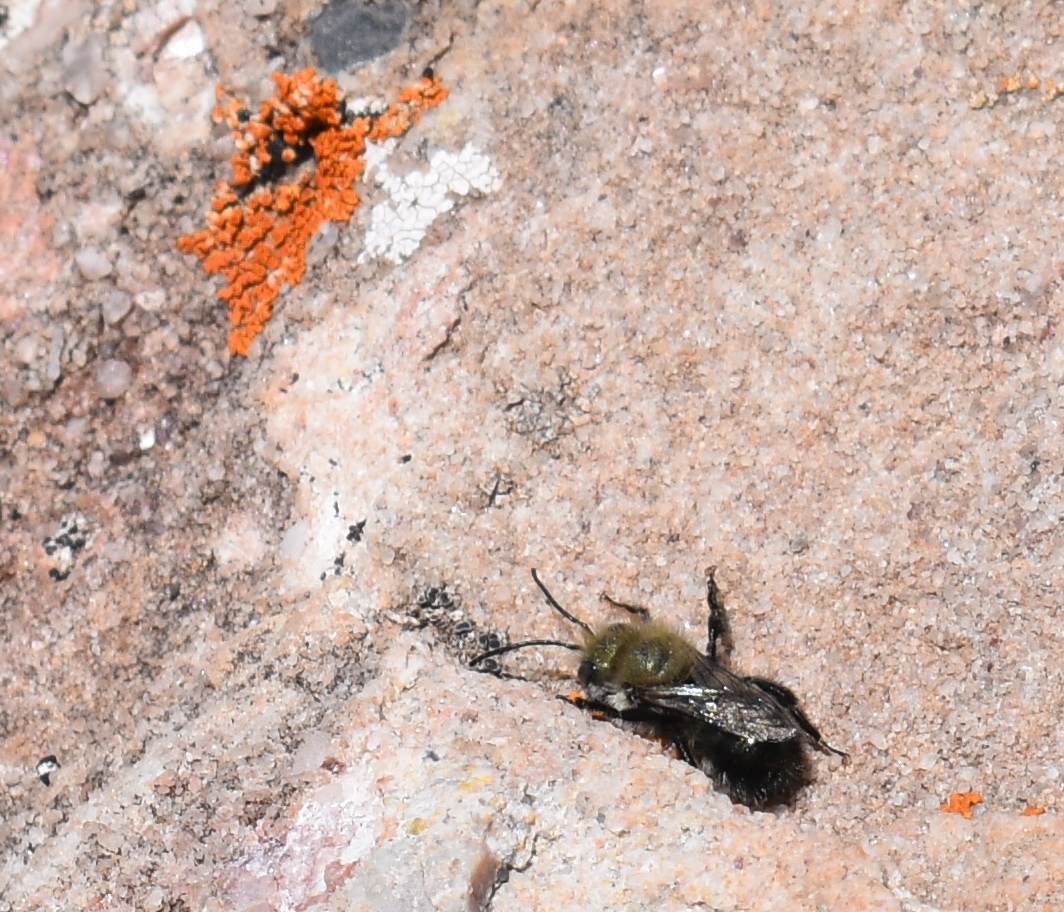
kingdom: Animalia
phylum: Arthropoda
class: Insecta
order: Hymenoptera
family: Megachilidae
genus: Osmia
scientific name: Osmia
